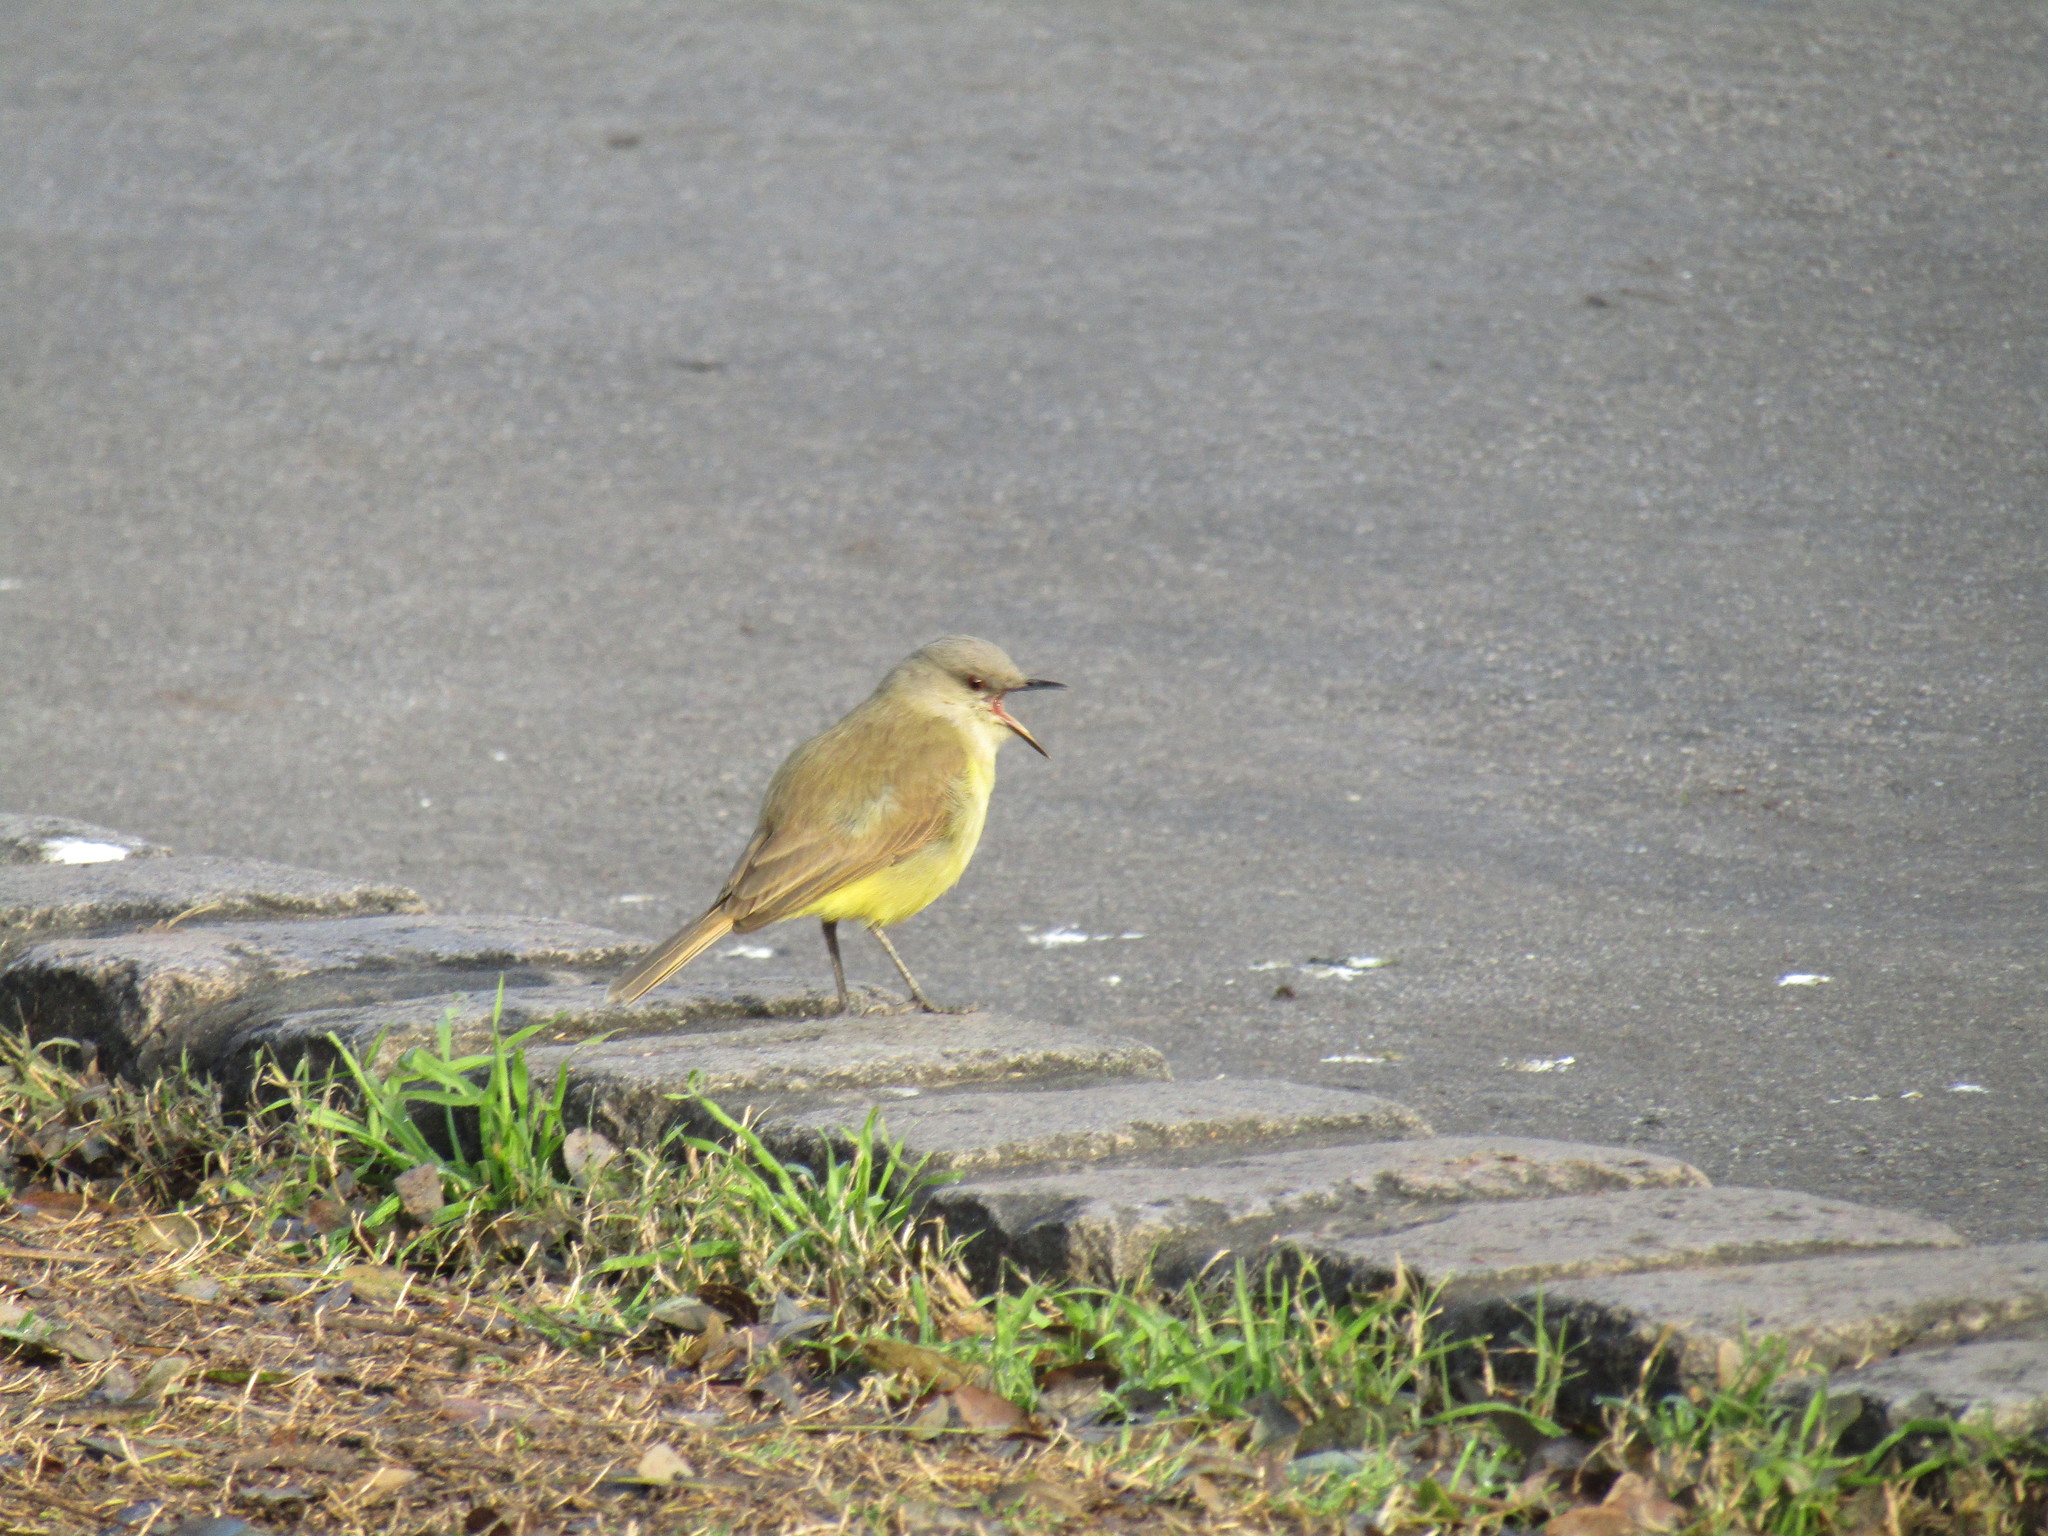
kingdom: Animalia
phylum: Chordata
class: Aves
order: Passeriformes
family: Tyrannidae
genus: Machetornis
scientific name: Machetornis rixosa
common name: Cattle tyrant
